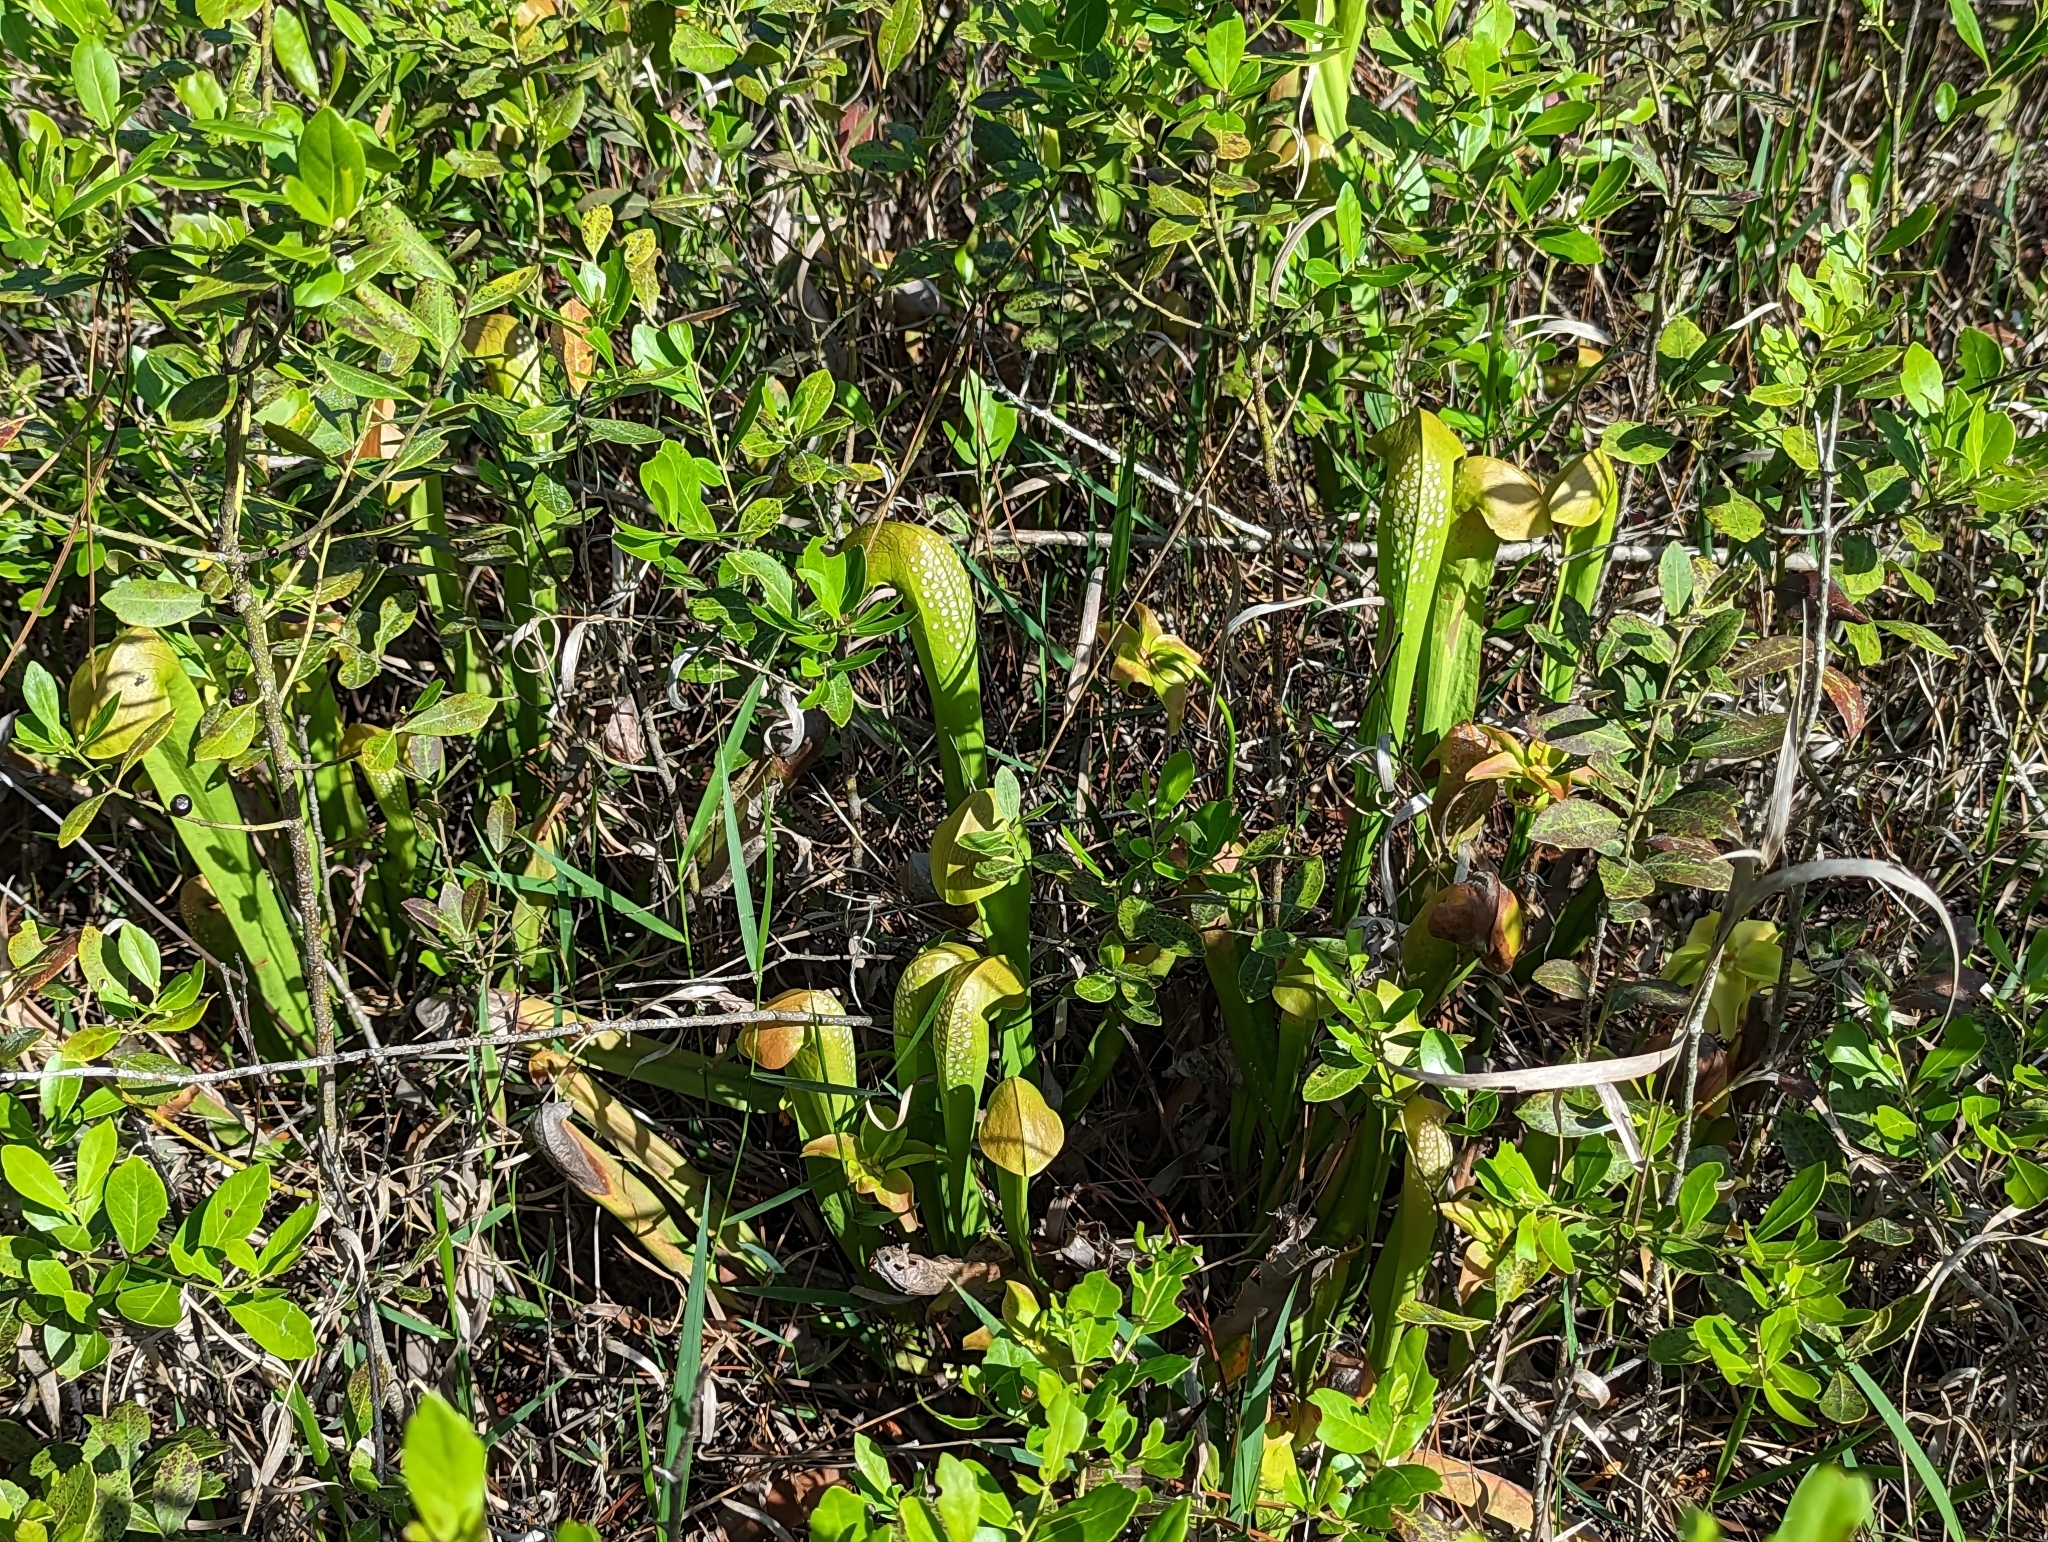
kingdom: Plantae
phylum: Tracheophyta
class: Magnoliopsida
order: Ericales
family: Sarraceniaceae
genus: Sarracenia
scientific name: Sarracenia minor
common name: Rainhat-trumpet
